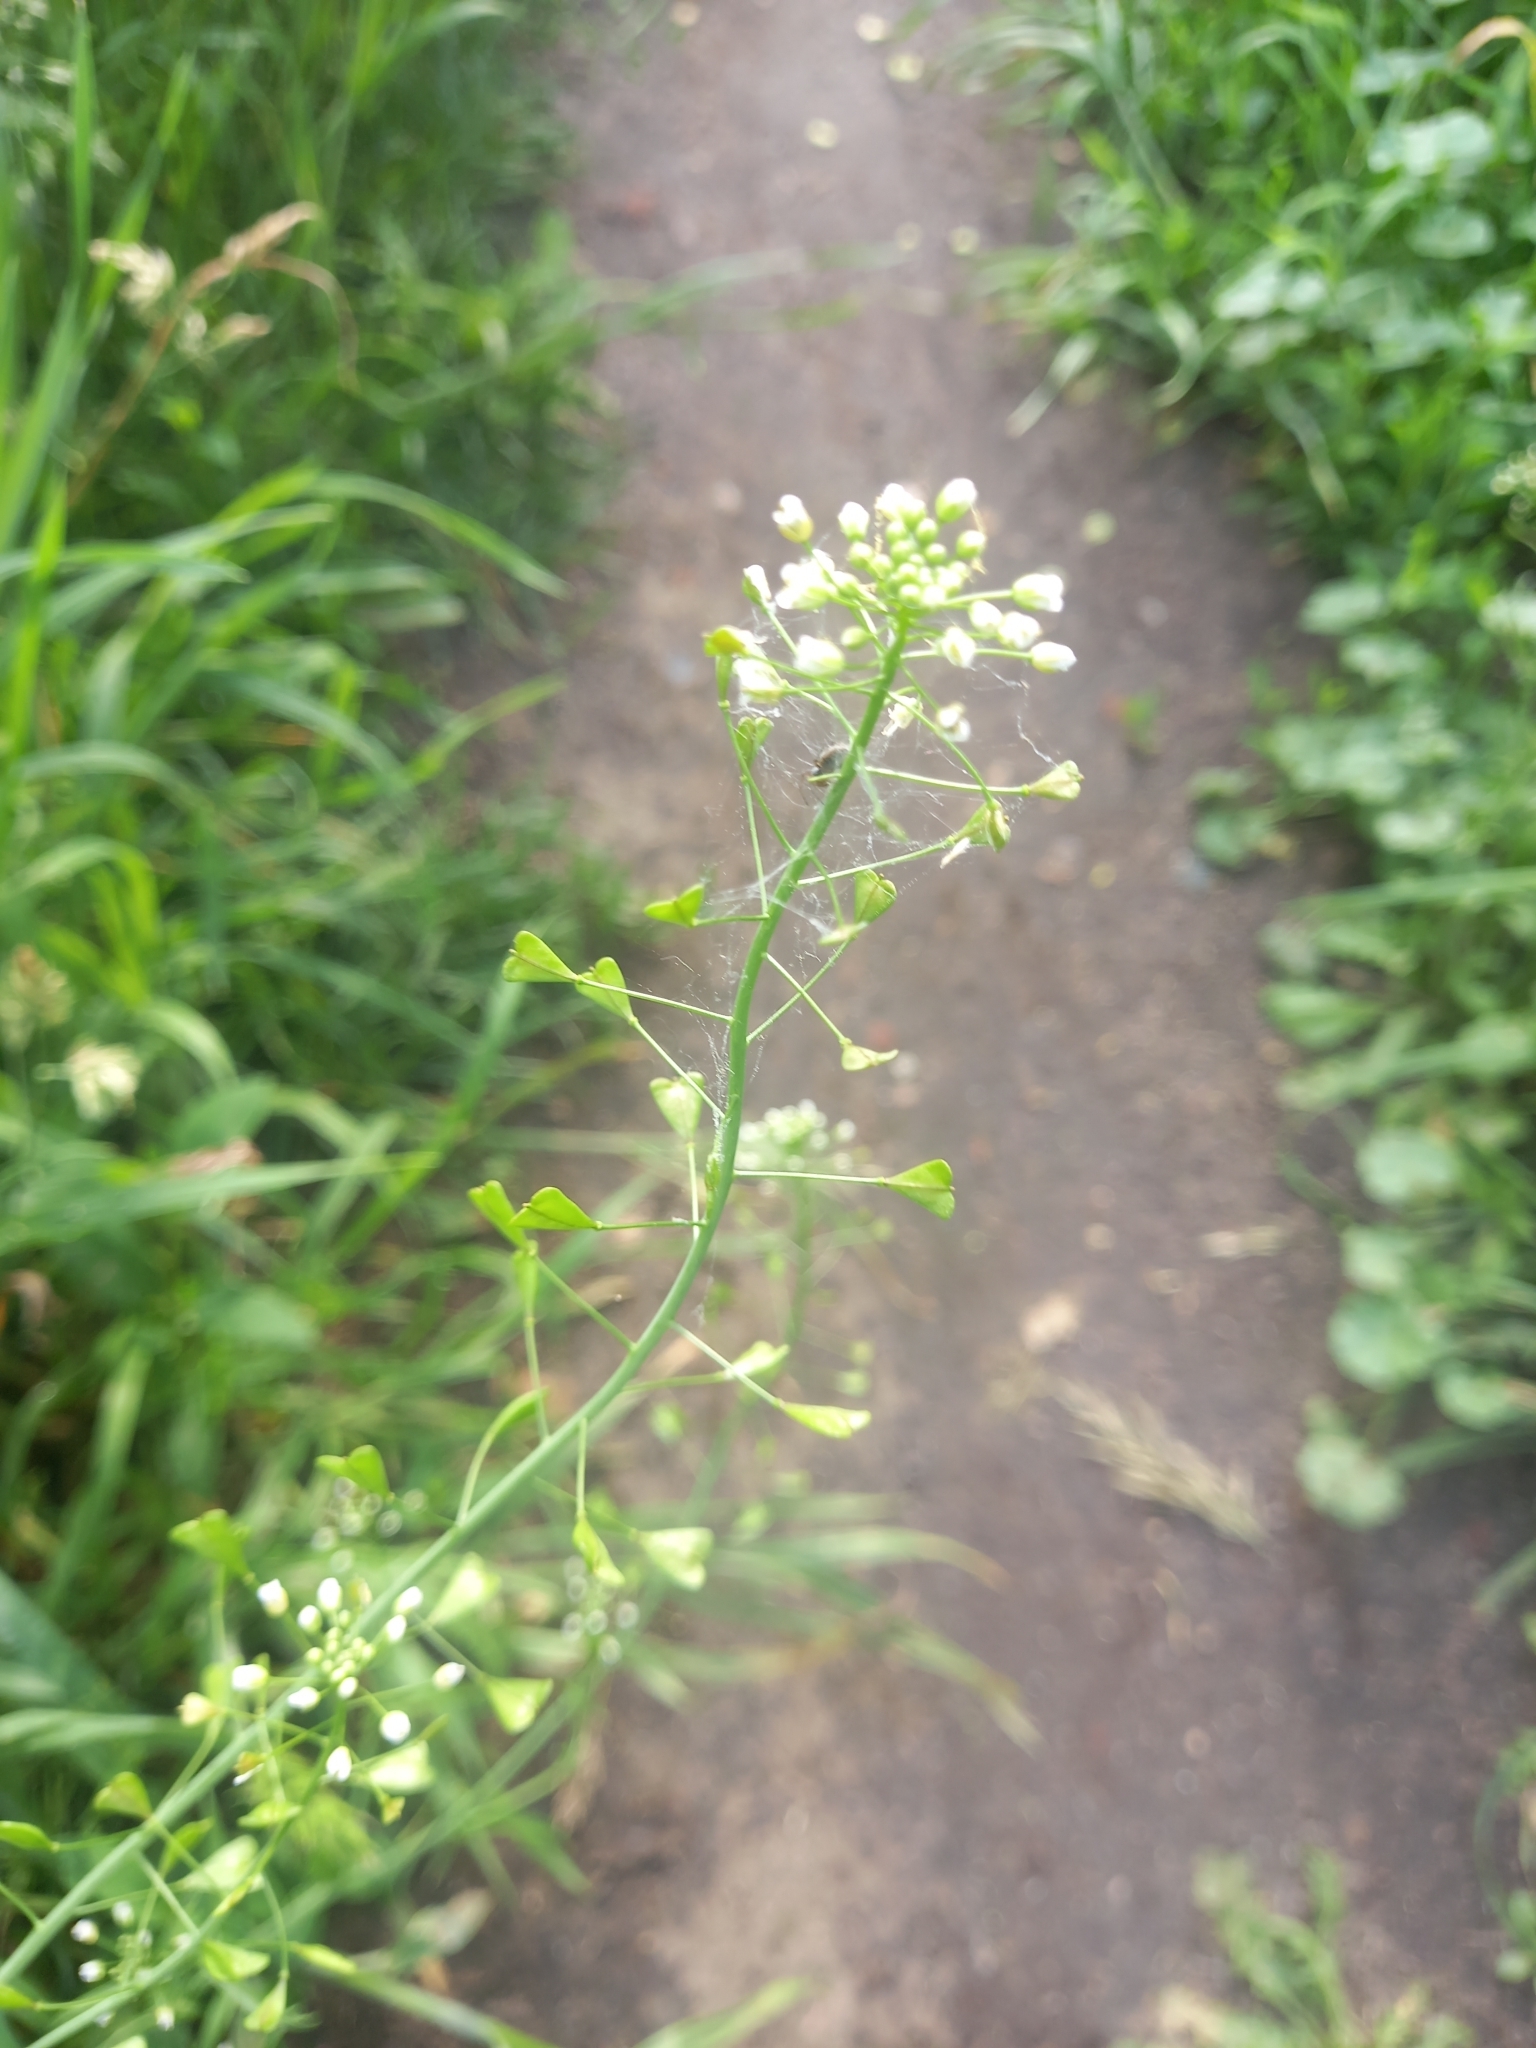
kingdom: Plantae
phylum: Tracheophyta
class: Magnoliopsida
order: Brassicales
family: Brassicaceae
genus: Capsella
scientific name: Capsella bursa-pastoris
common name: Shepherd's purse
